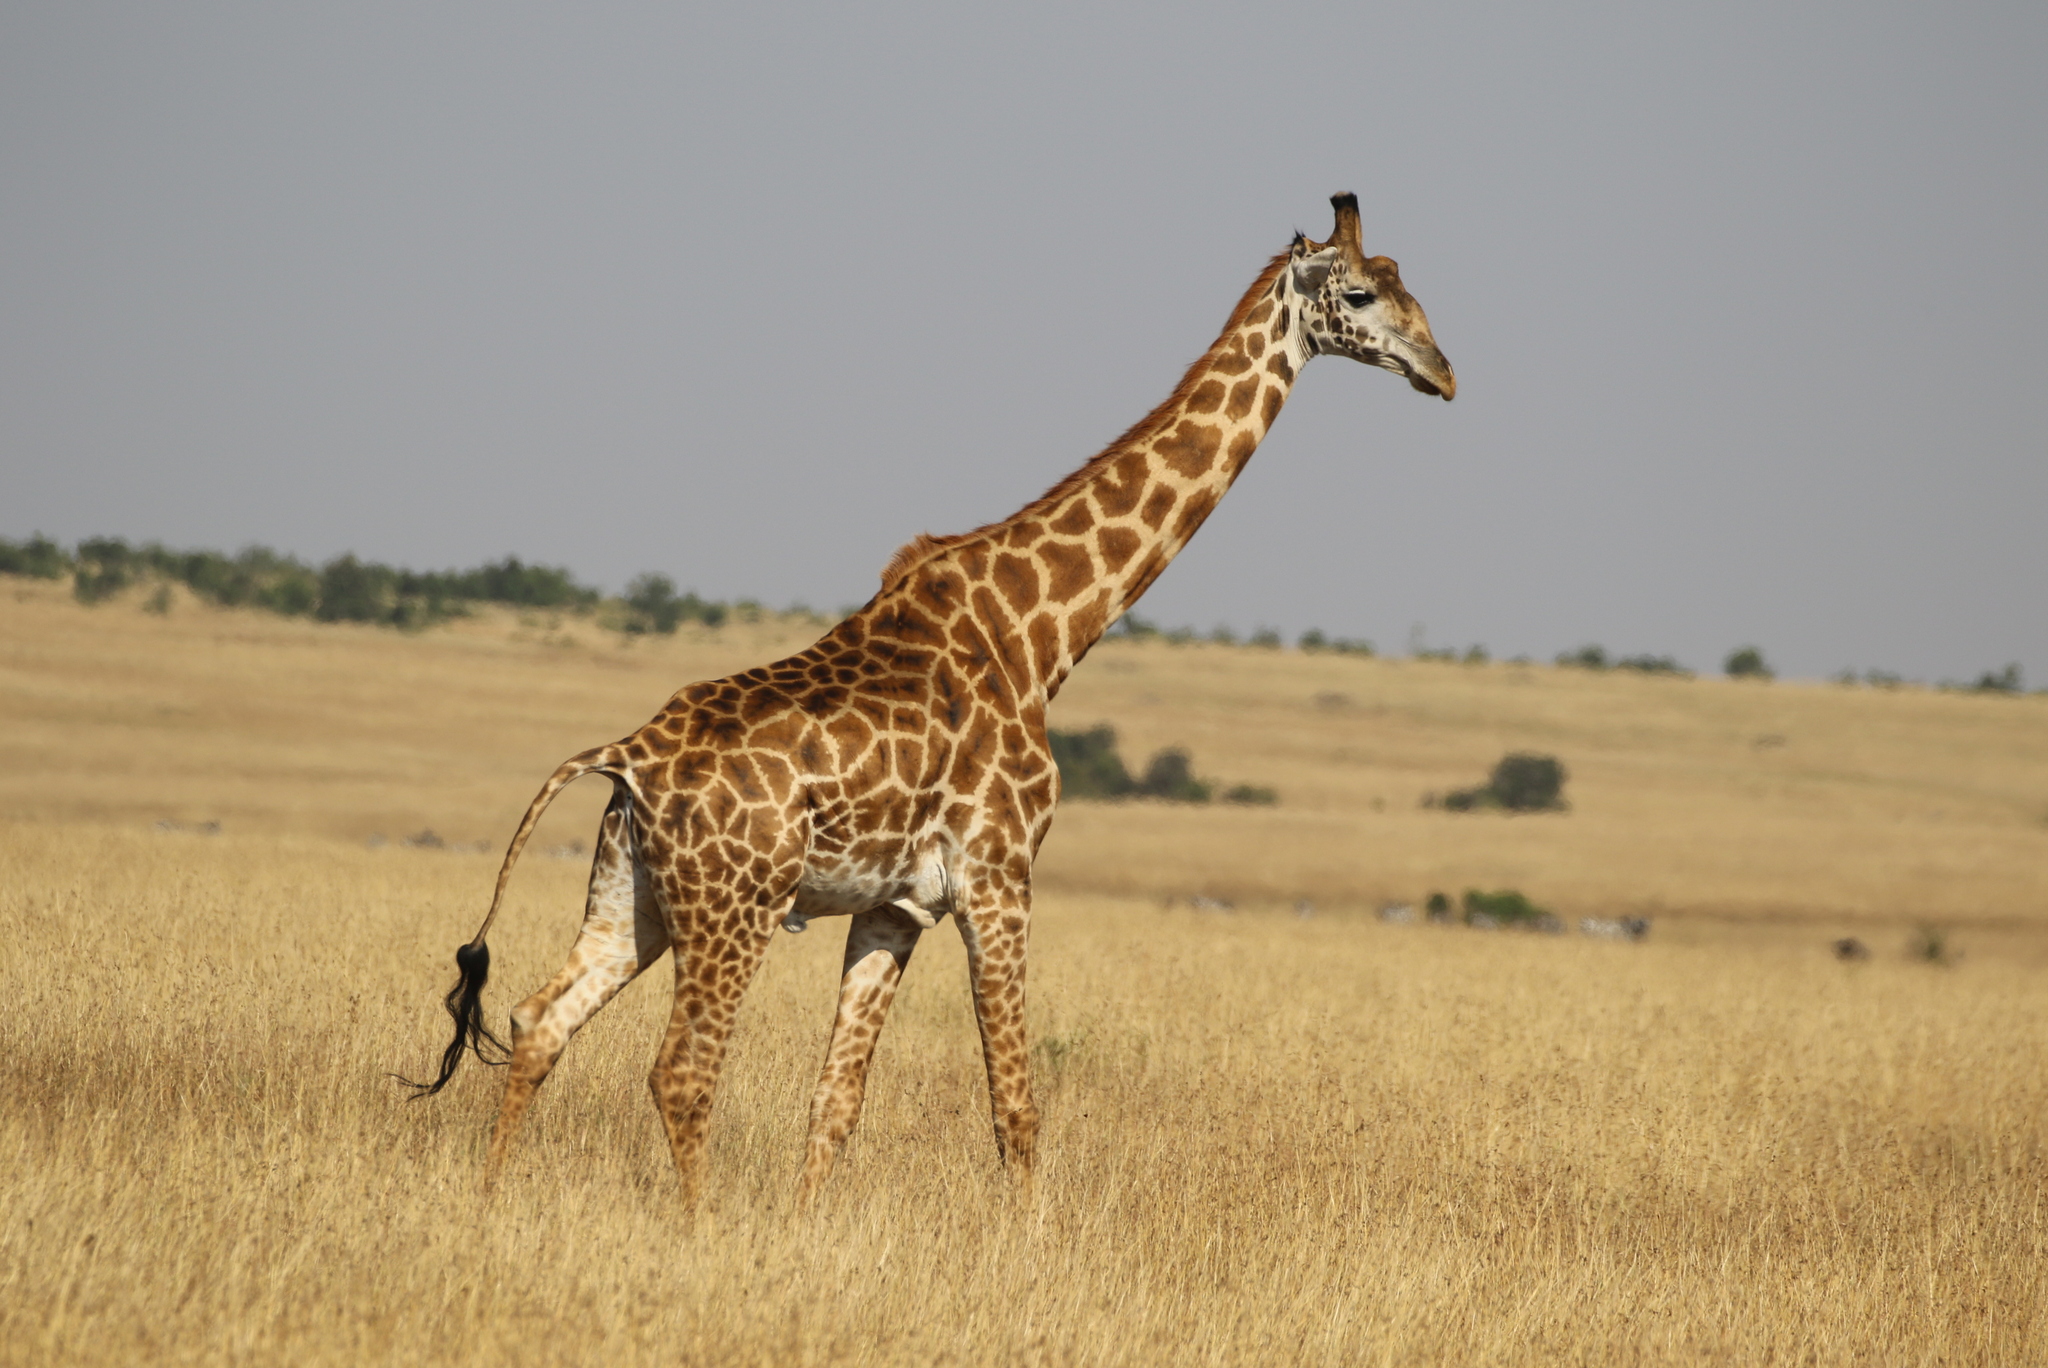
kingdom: Animalia
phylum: Chordata
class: Mammalia
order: Artiodactyla
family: Giraffidae
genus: Giraffa
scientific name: Giraffa tippelskirchi
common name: Masai giraffe
